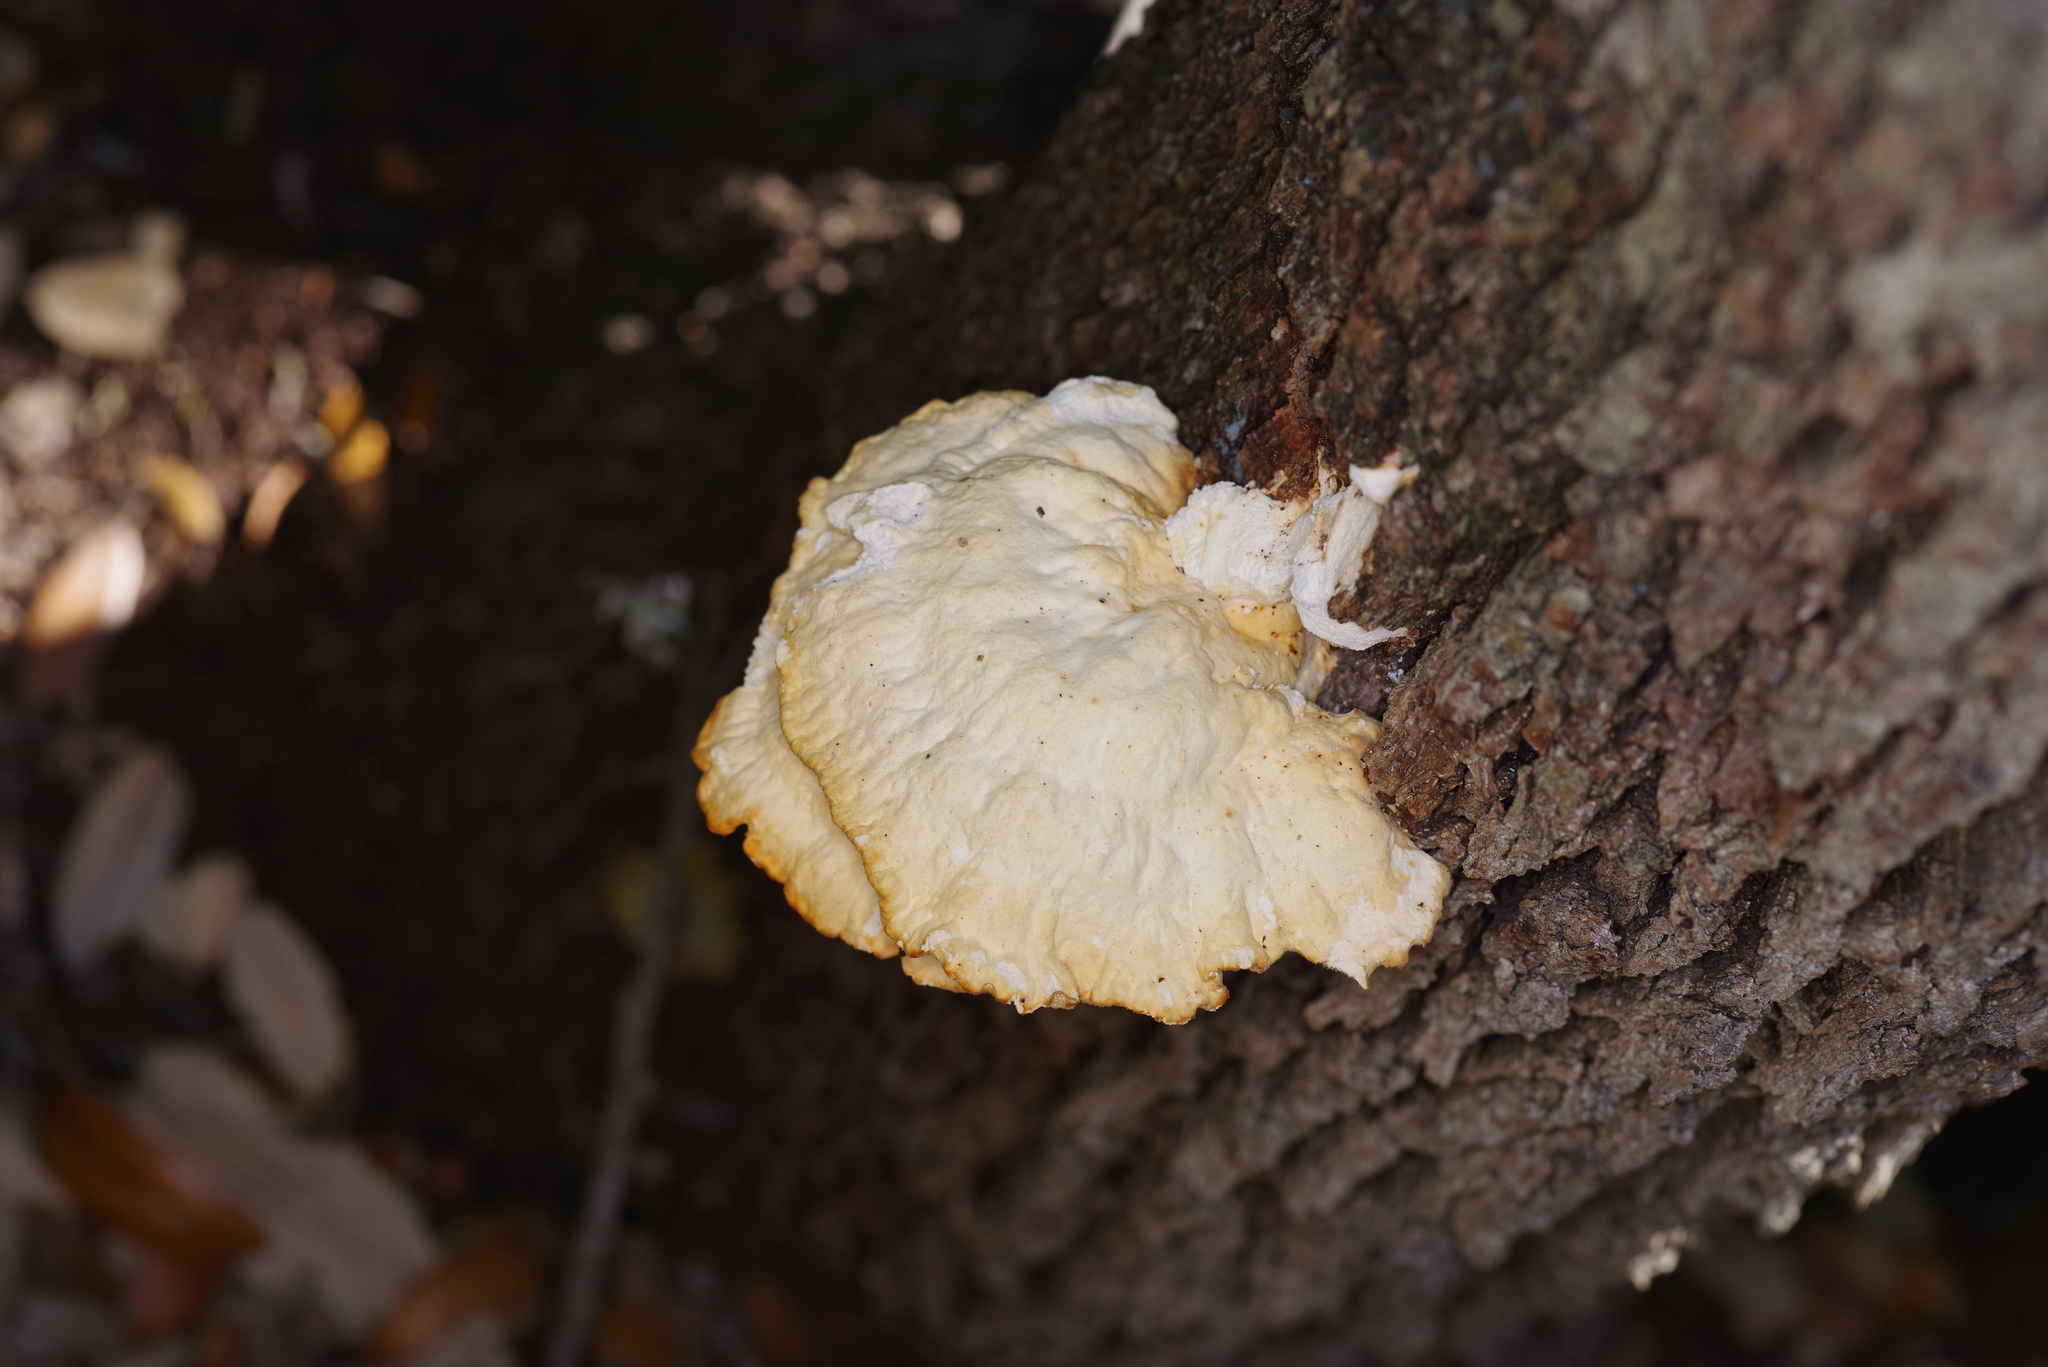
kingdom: Fungi
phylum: Basidiomycota
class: Agaricomycetes
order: Polyporales
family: Laetiporaceae
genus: Laetiporus
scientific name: Laetiporus sulphureus
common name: Chicken of the woods
